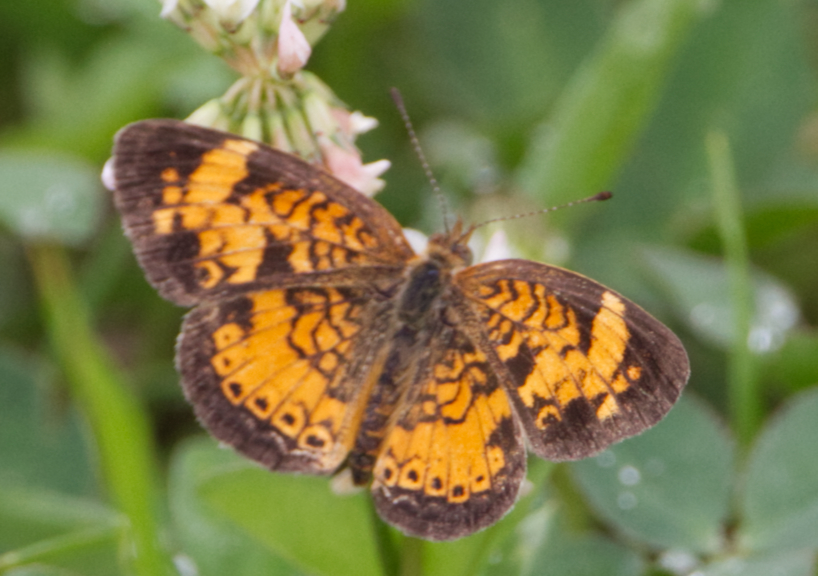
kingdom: Animalia
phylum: Arthropoda
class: Insecta
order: Lepidoptera
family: Nymphalidae
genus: Phyciodes
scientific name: Phyciodes tharos
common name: Pearl crescent
